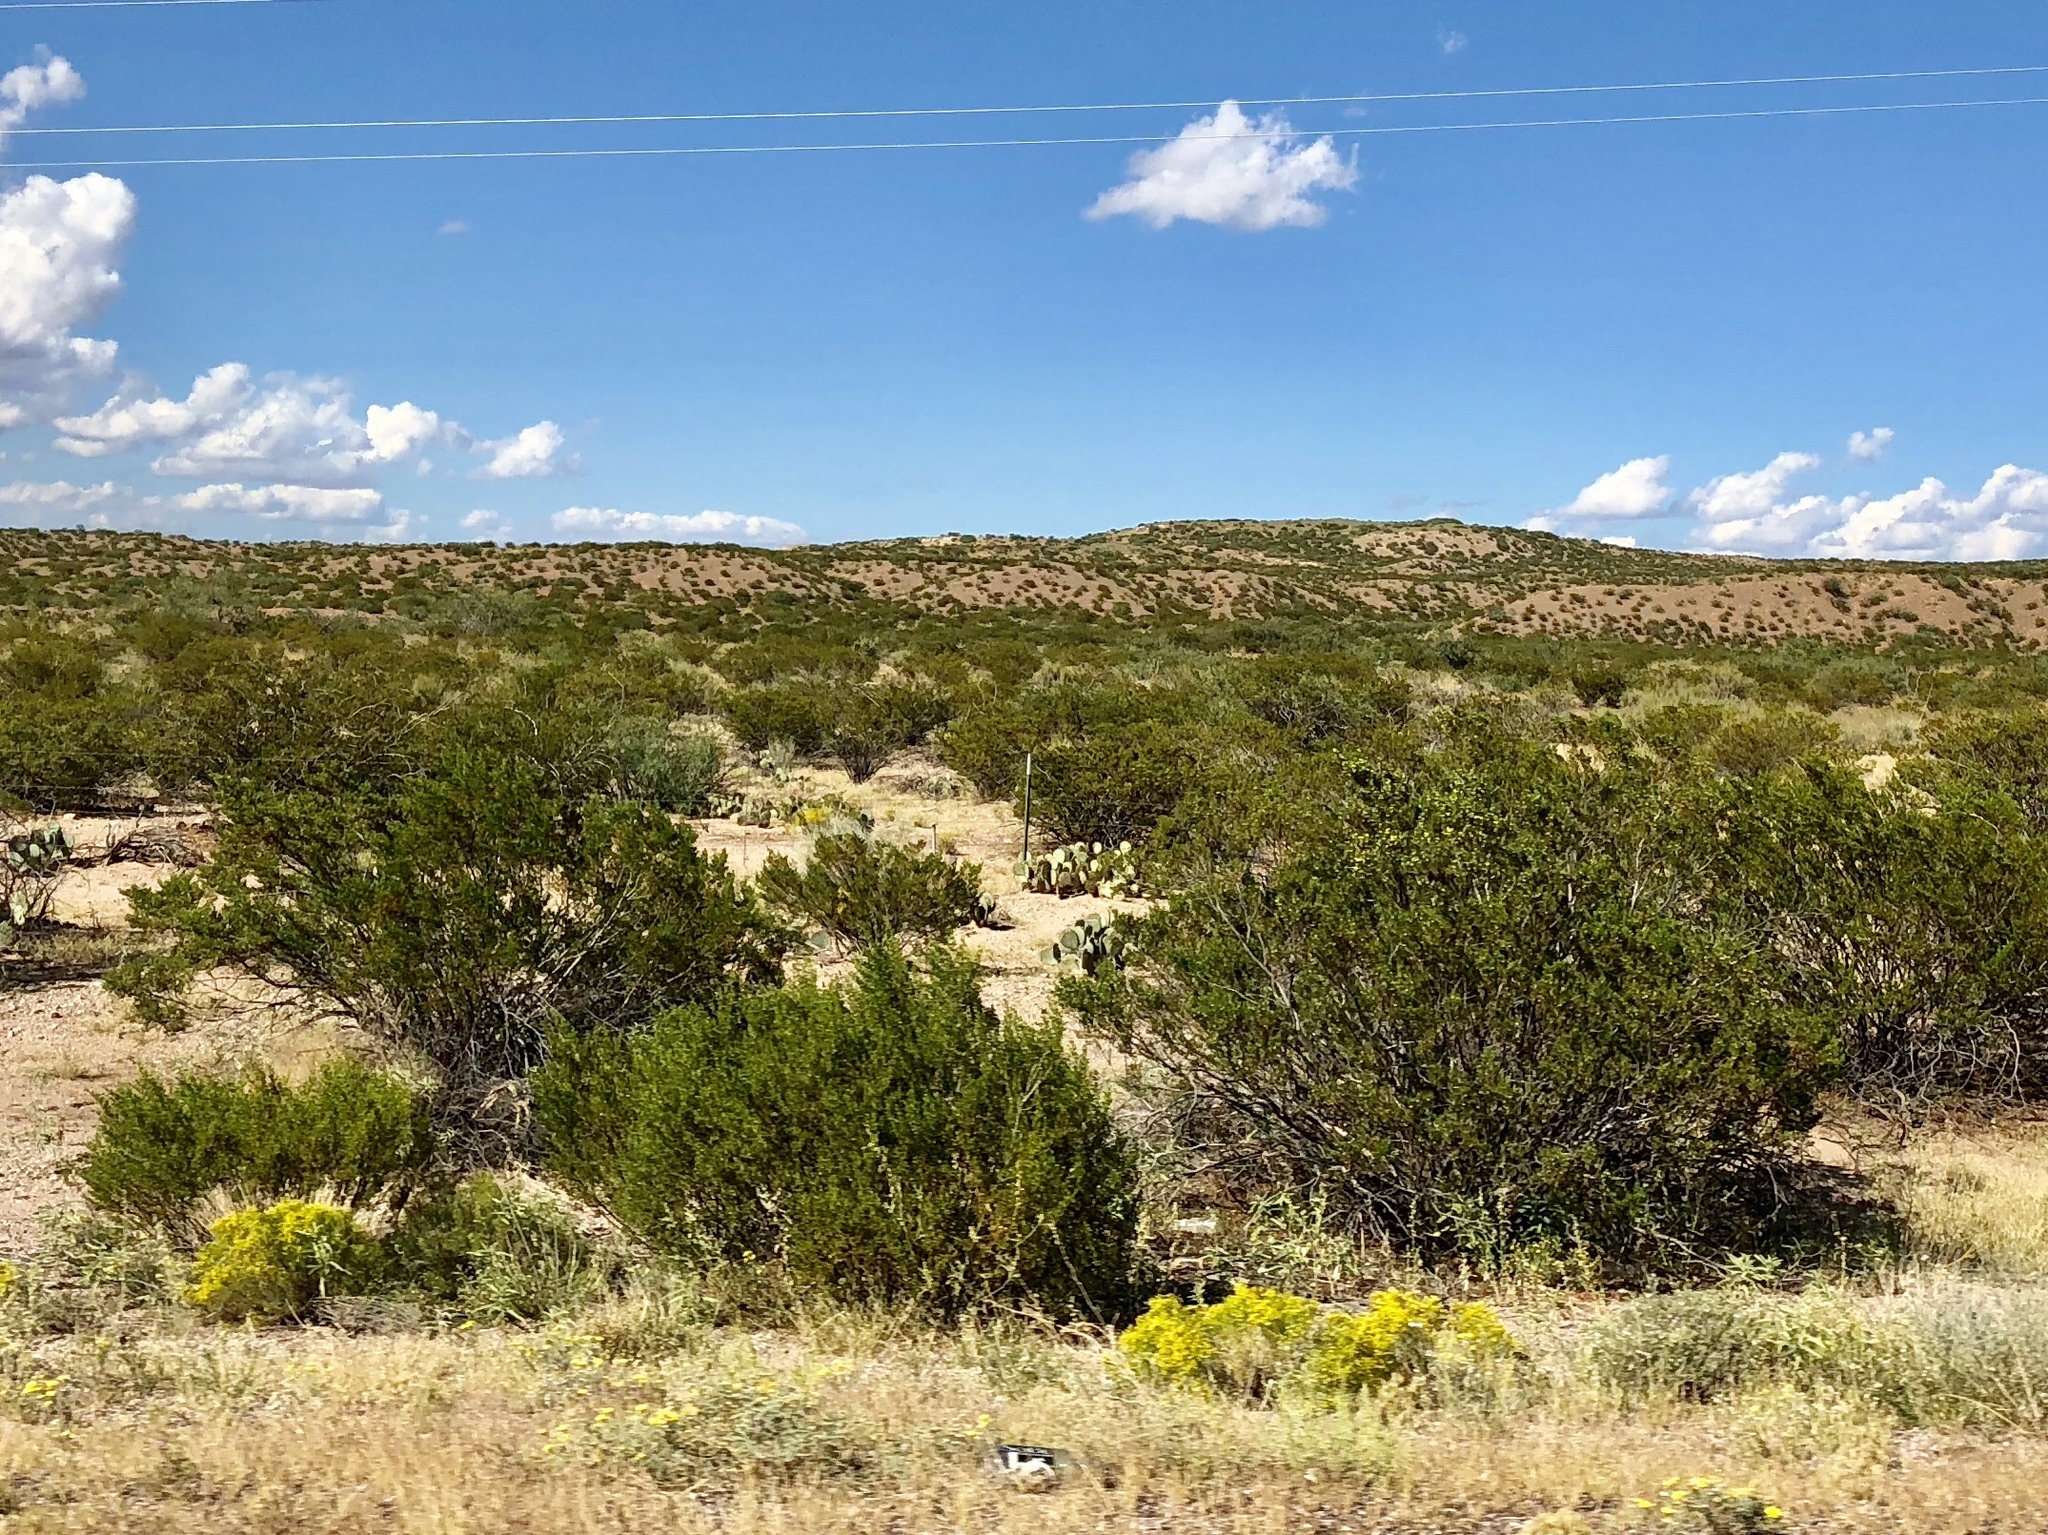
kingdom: Plantae
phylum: Tracheophyta
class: Magnoliopsida
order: Zygophyllales
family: Zygophyllaceae
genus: Larrea
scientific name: Larrea tridentata
